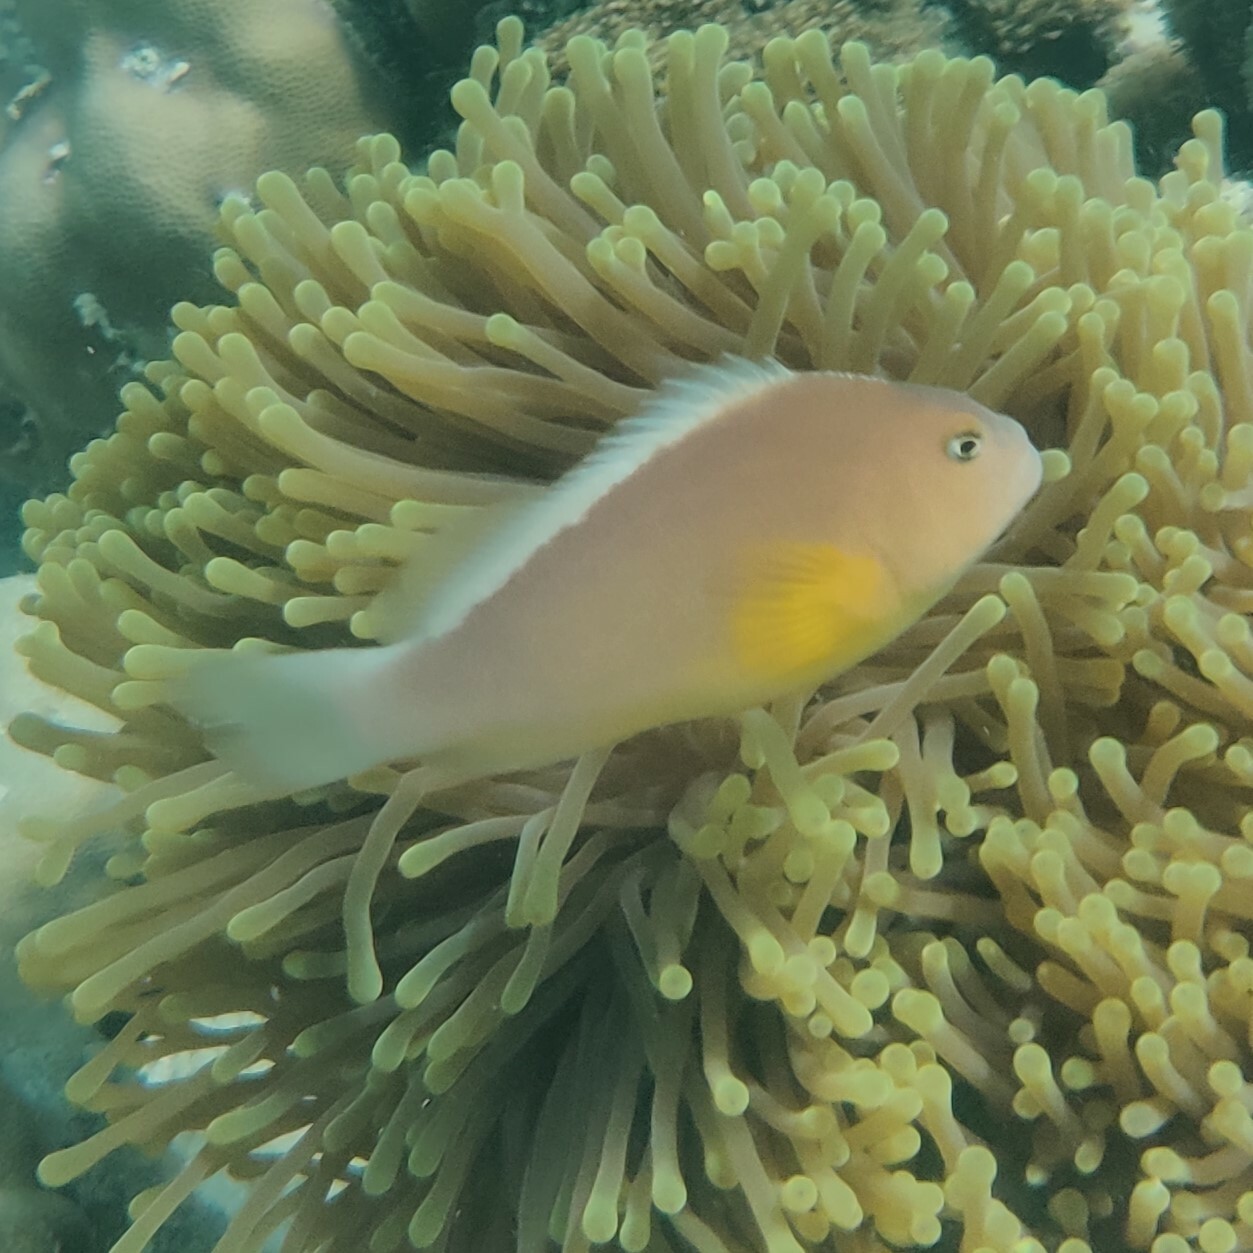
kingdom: Animalia
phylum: Chordata
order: Perciformes
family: Pomacentridae
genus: Amphiprion
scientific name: Amphiprion akallopisos
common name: Skunk clownfish
